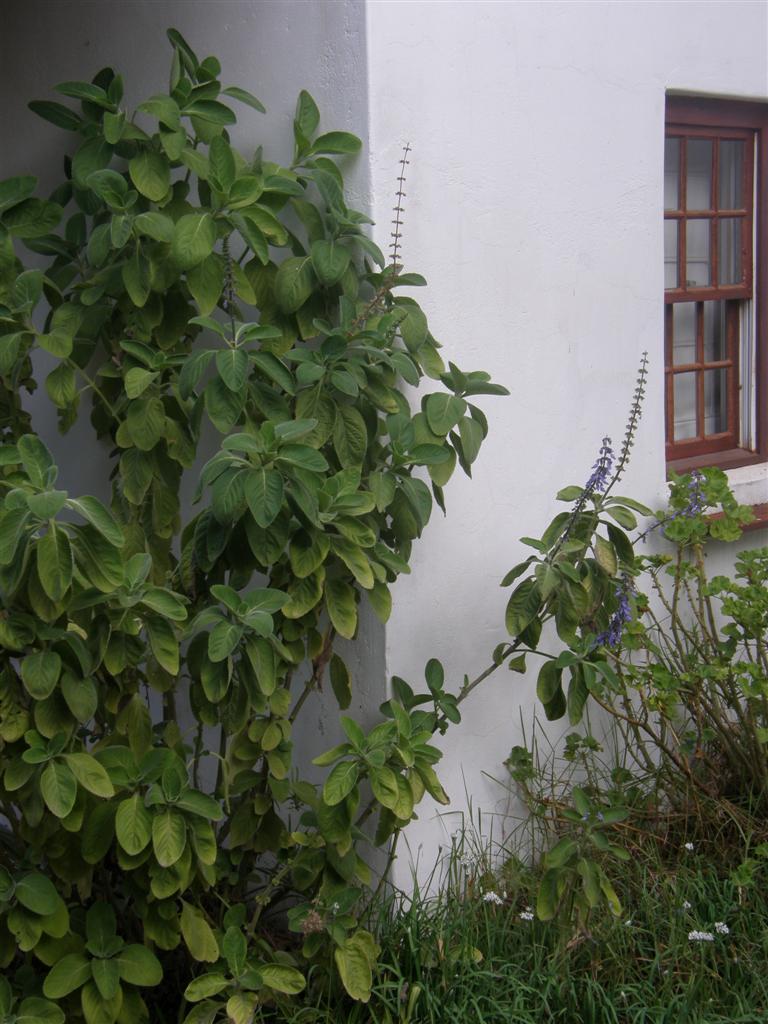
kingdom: Plantae
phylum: Tracheophyta
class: Magnoliopsida
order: Lamiales
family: Lamiaceae
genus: Coleus
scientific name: Coleus barbatus
